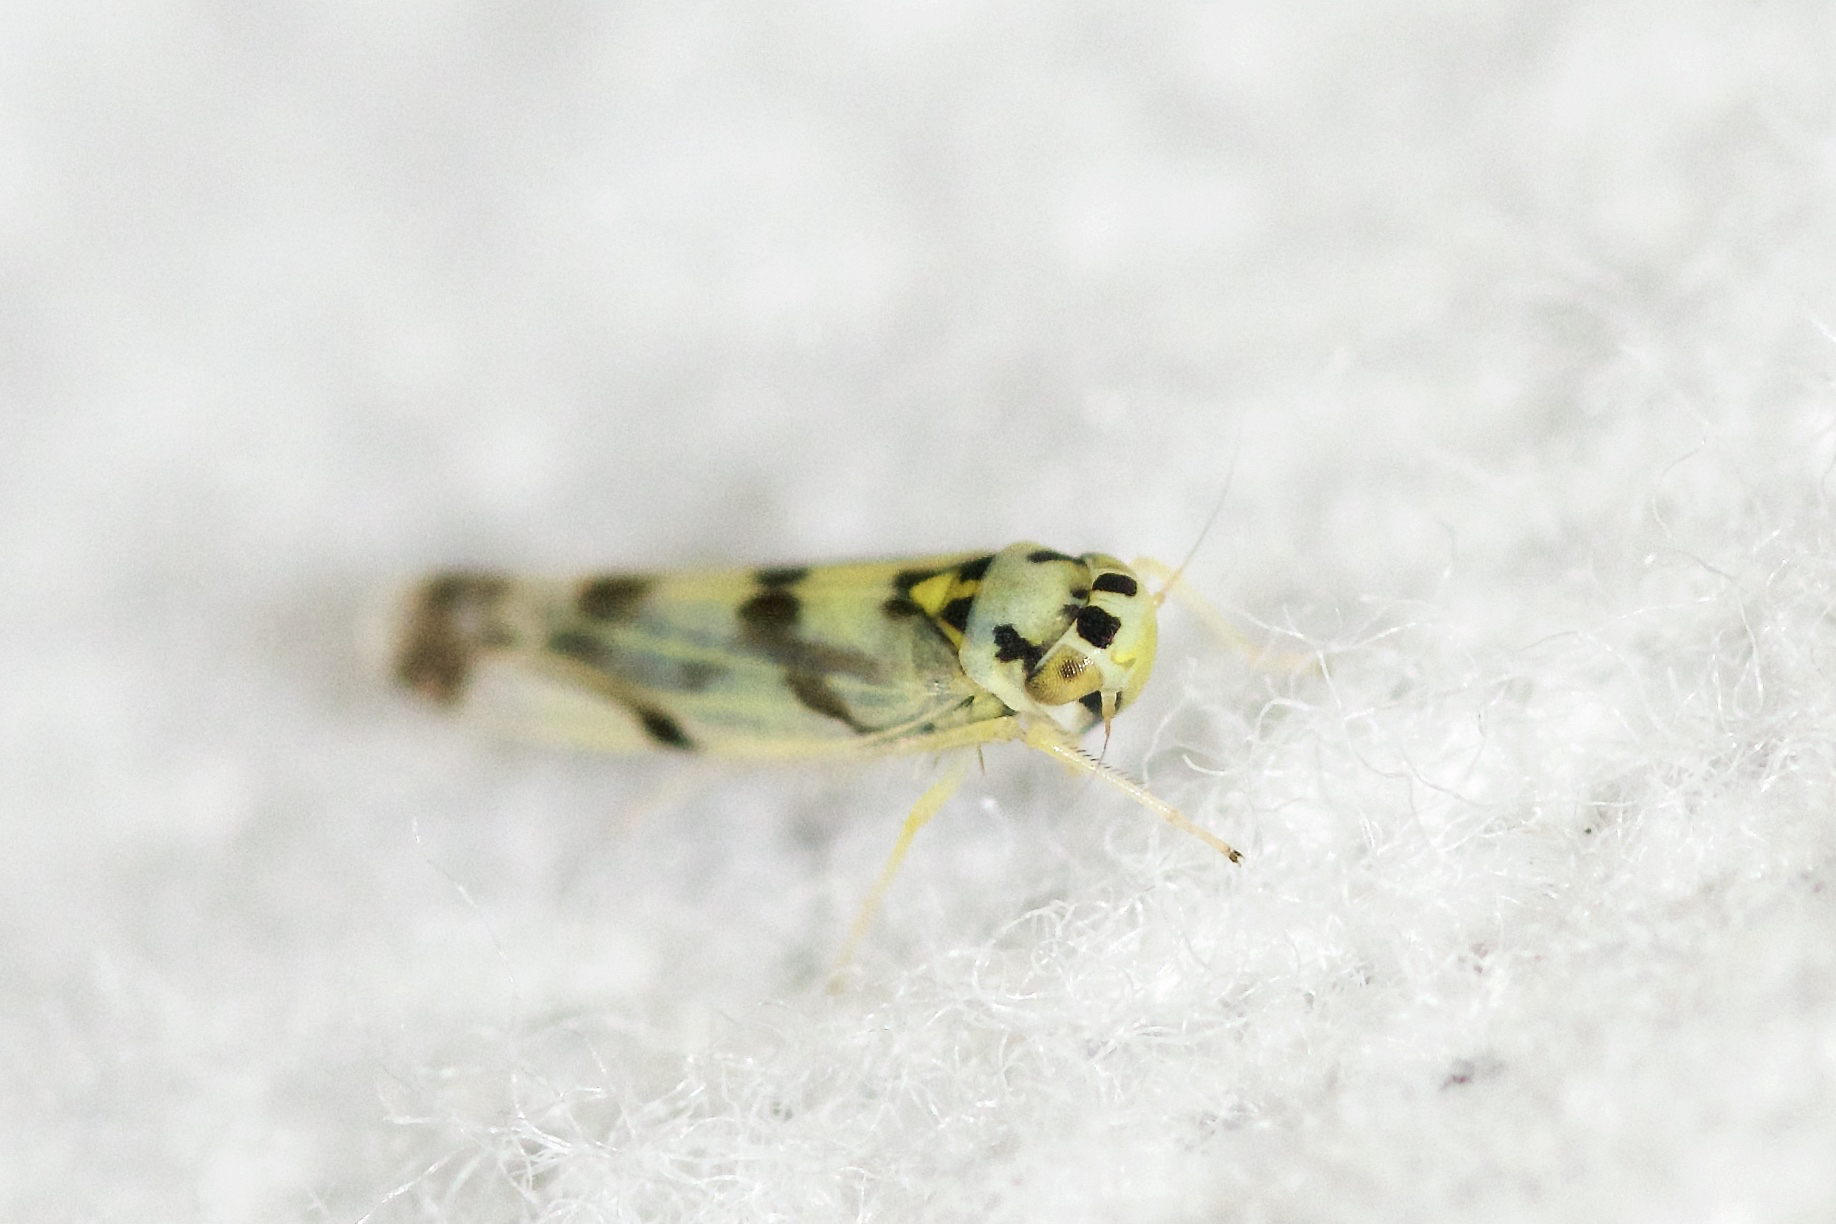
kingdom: Animalia
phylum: Arthropoda
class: Insecta
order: Hemiptera
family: Cicadellidae
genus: Eupteryx
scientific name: Eupteryx atropunctata
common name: Leafhopper
